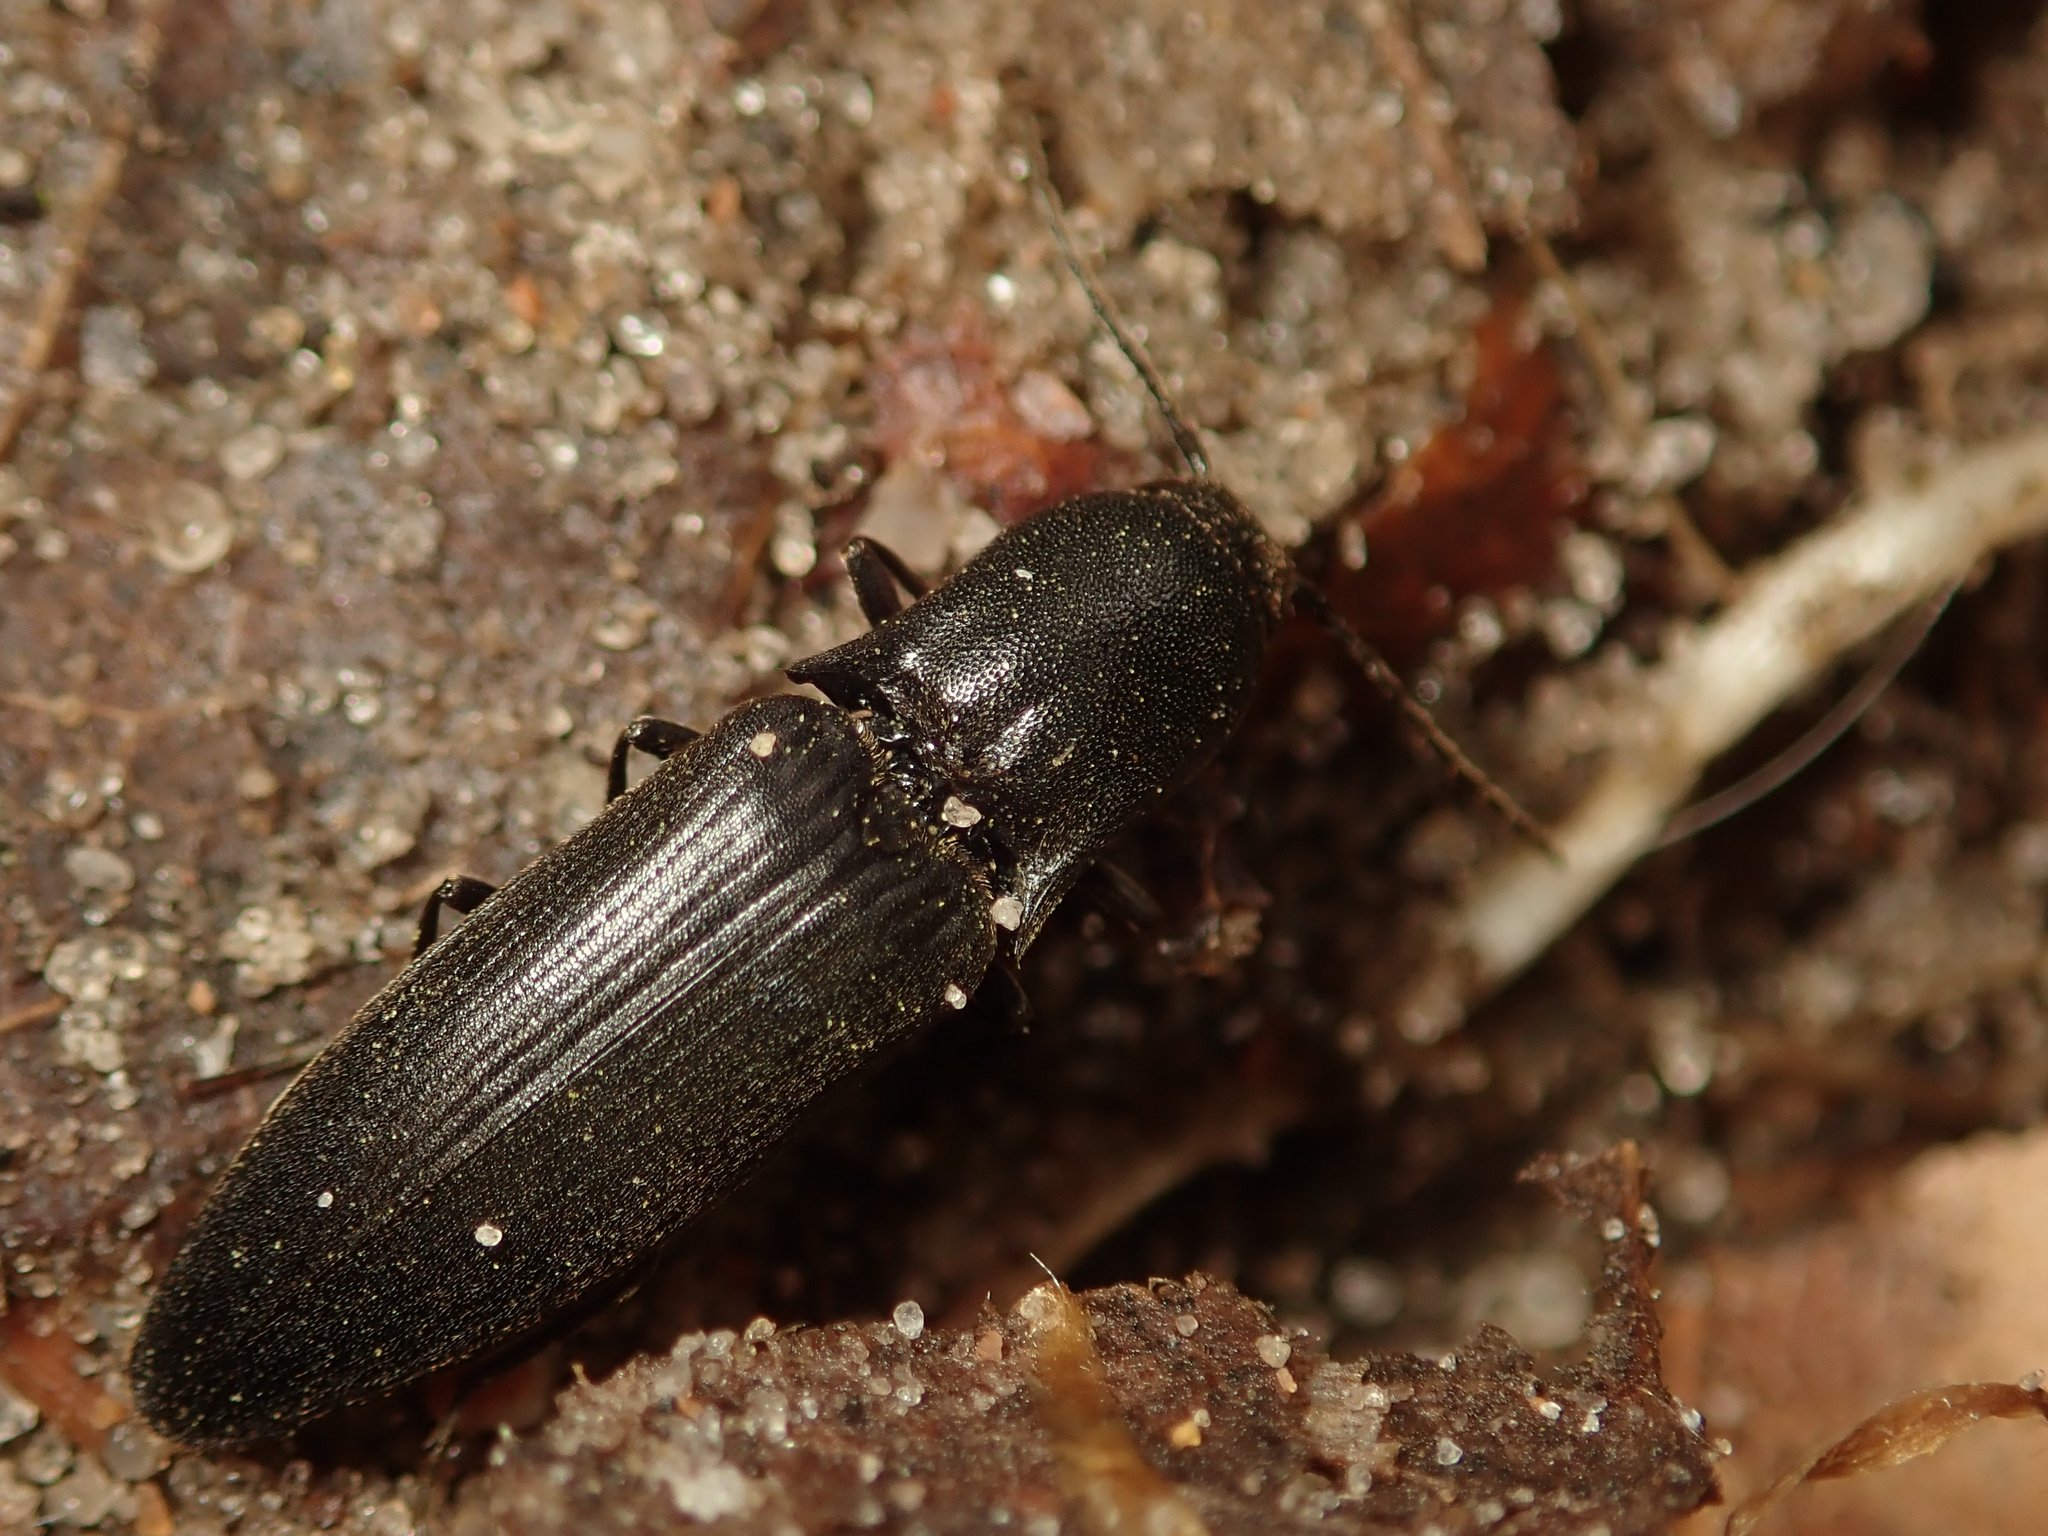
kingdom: Animalia
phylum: Arthropoda
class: Insecta
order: Coleoptera
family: Elateridae
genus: Ectinus
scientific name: Ectinus aterrimus
